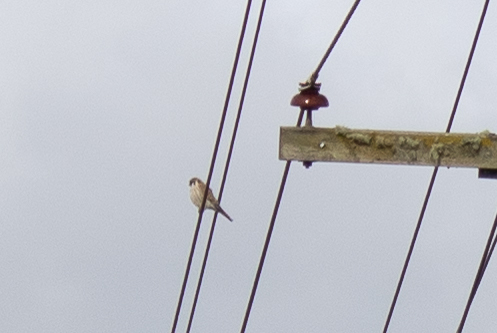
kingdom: Animalia
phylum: Chordata
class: Aves
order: Falconiformes
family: Falconidae
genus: Falco
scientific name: Falco sparverius
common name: American kestrel
